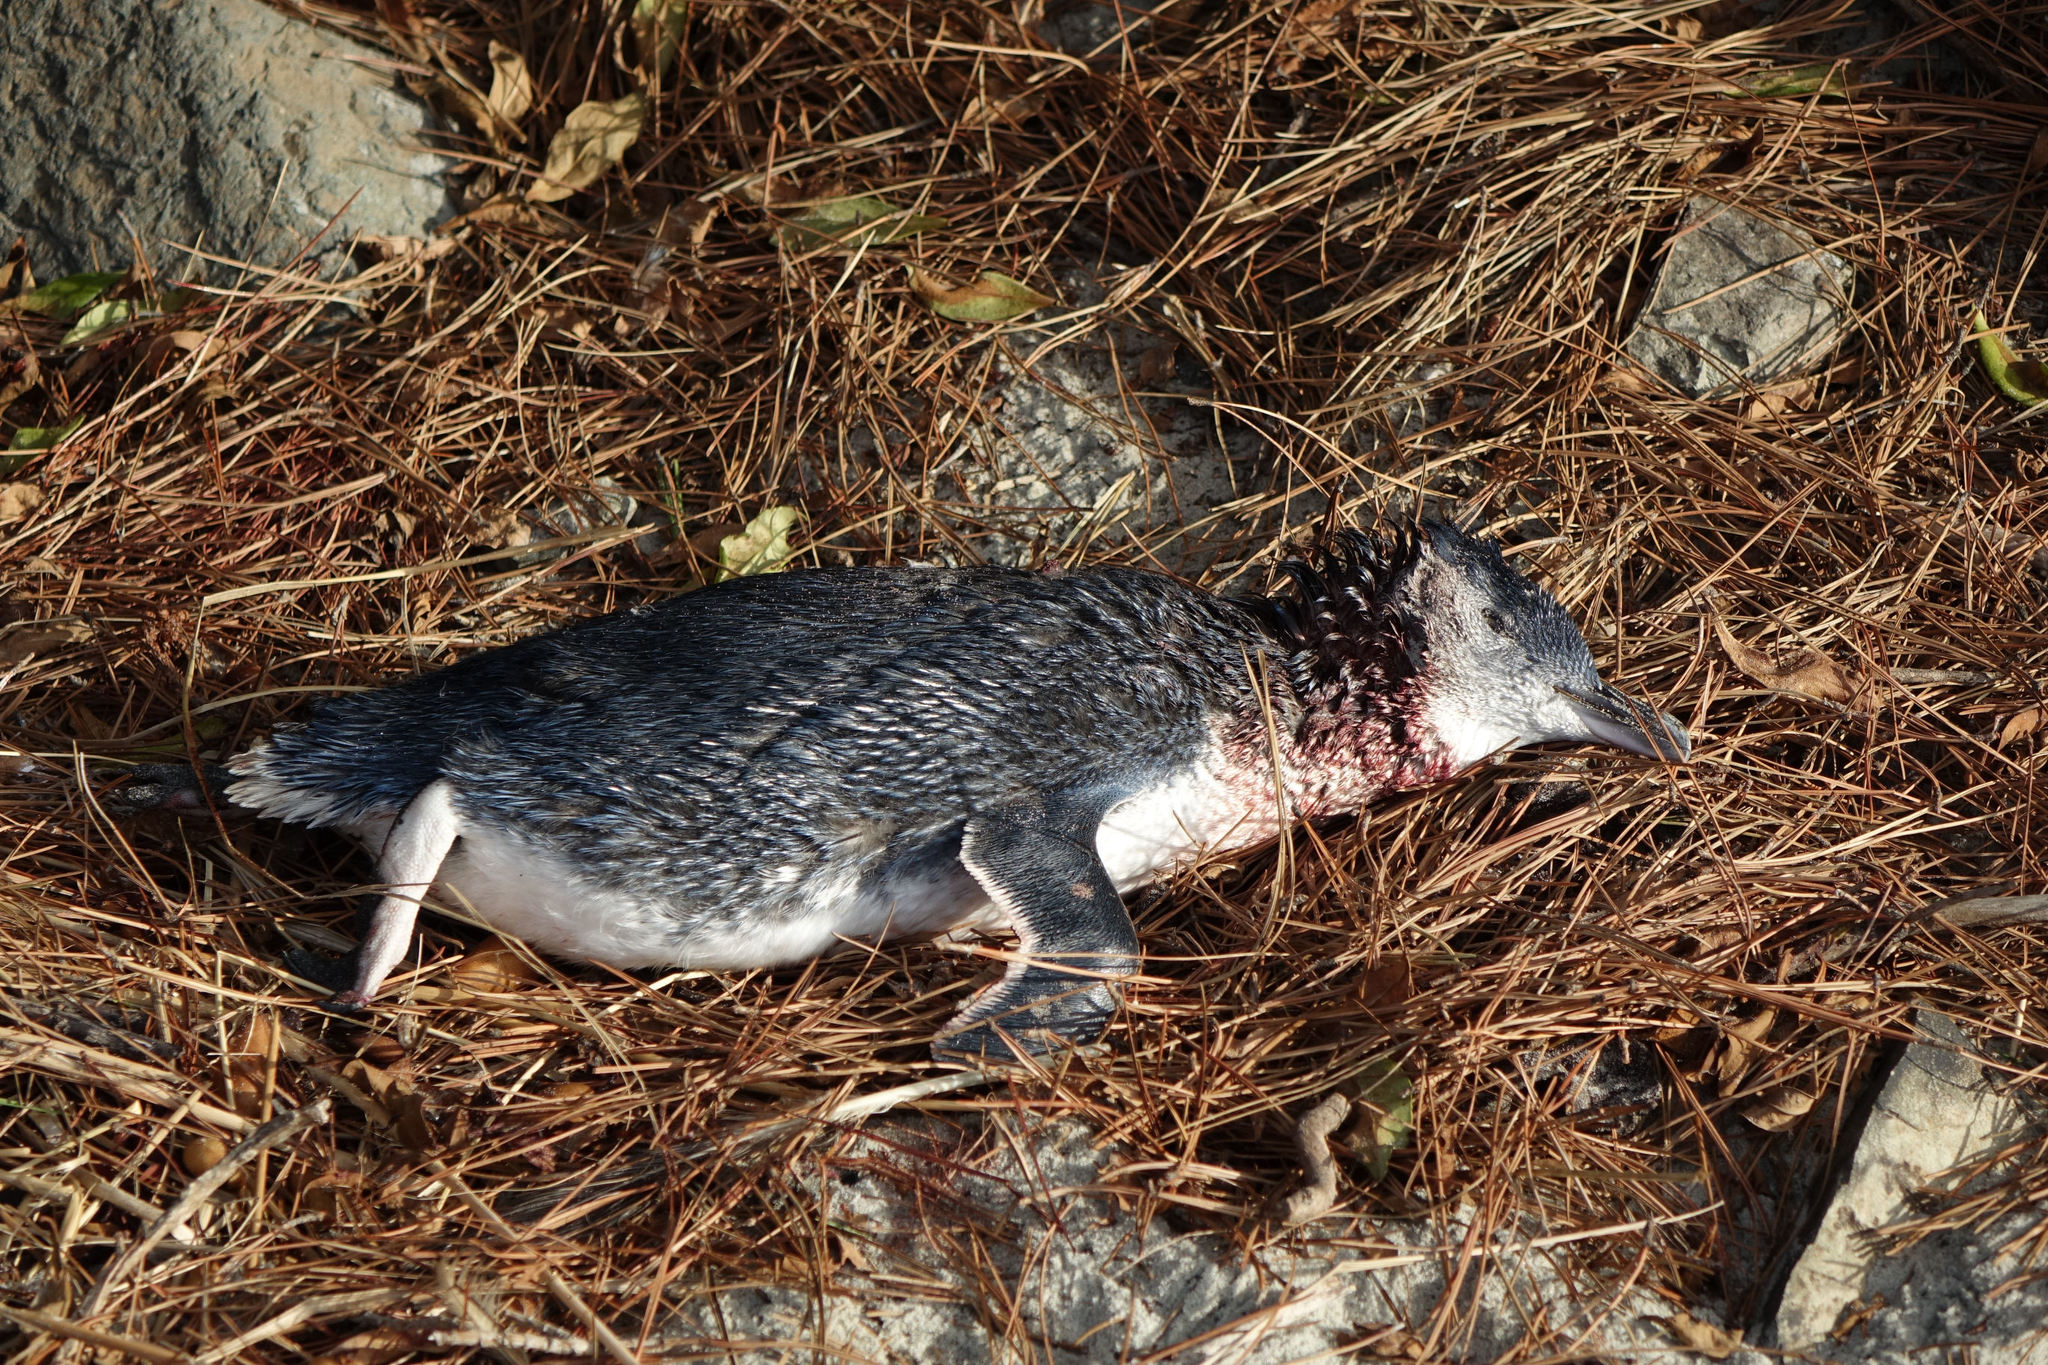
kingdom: Animalia
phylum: Chordata
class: Aves
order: Sphenisciformes
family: Spheniscidae
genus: Eudyptula
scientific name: Eudyptula minor
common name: Little penguin
